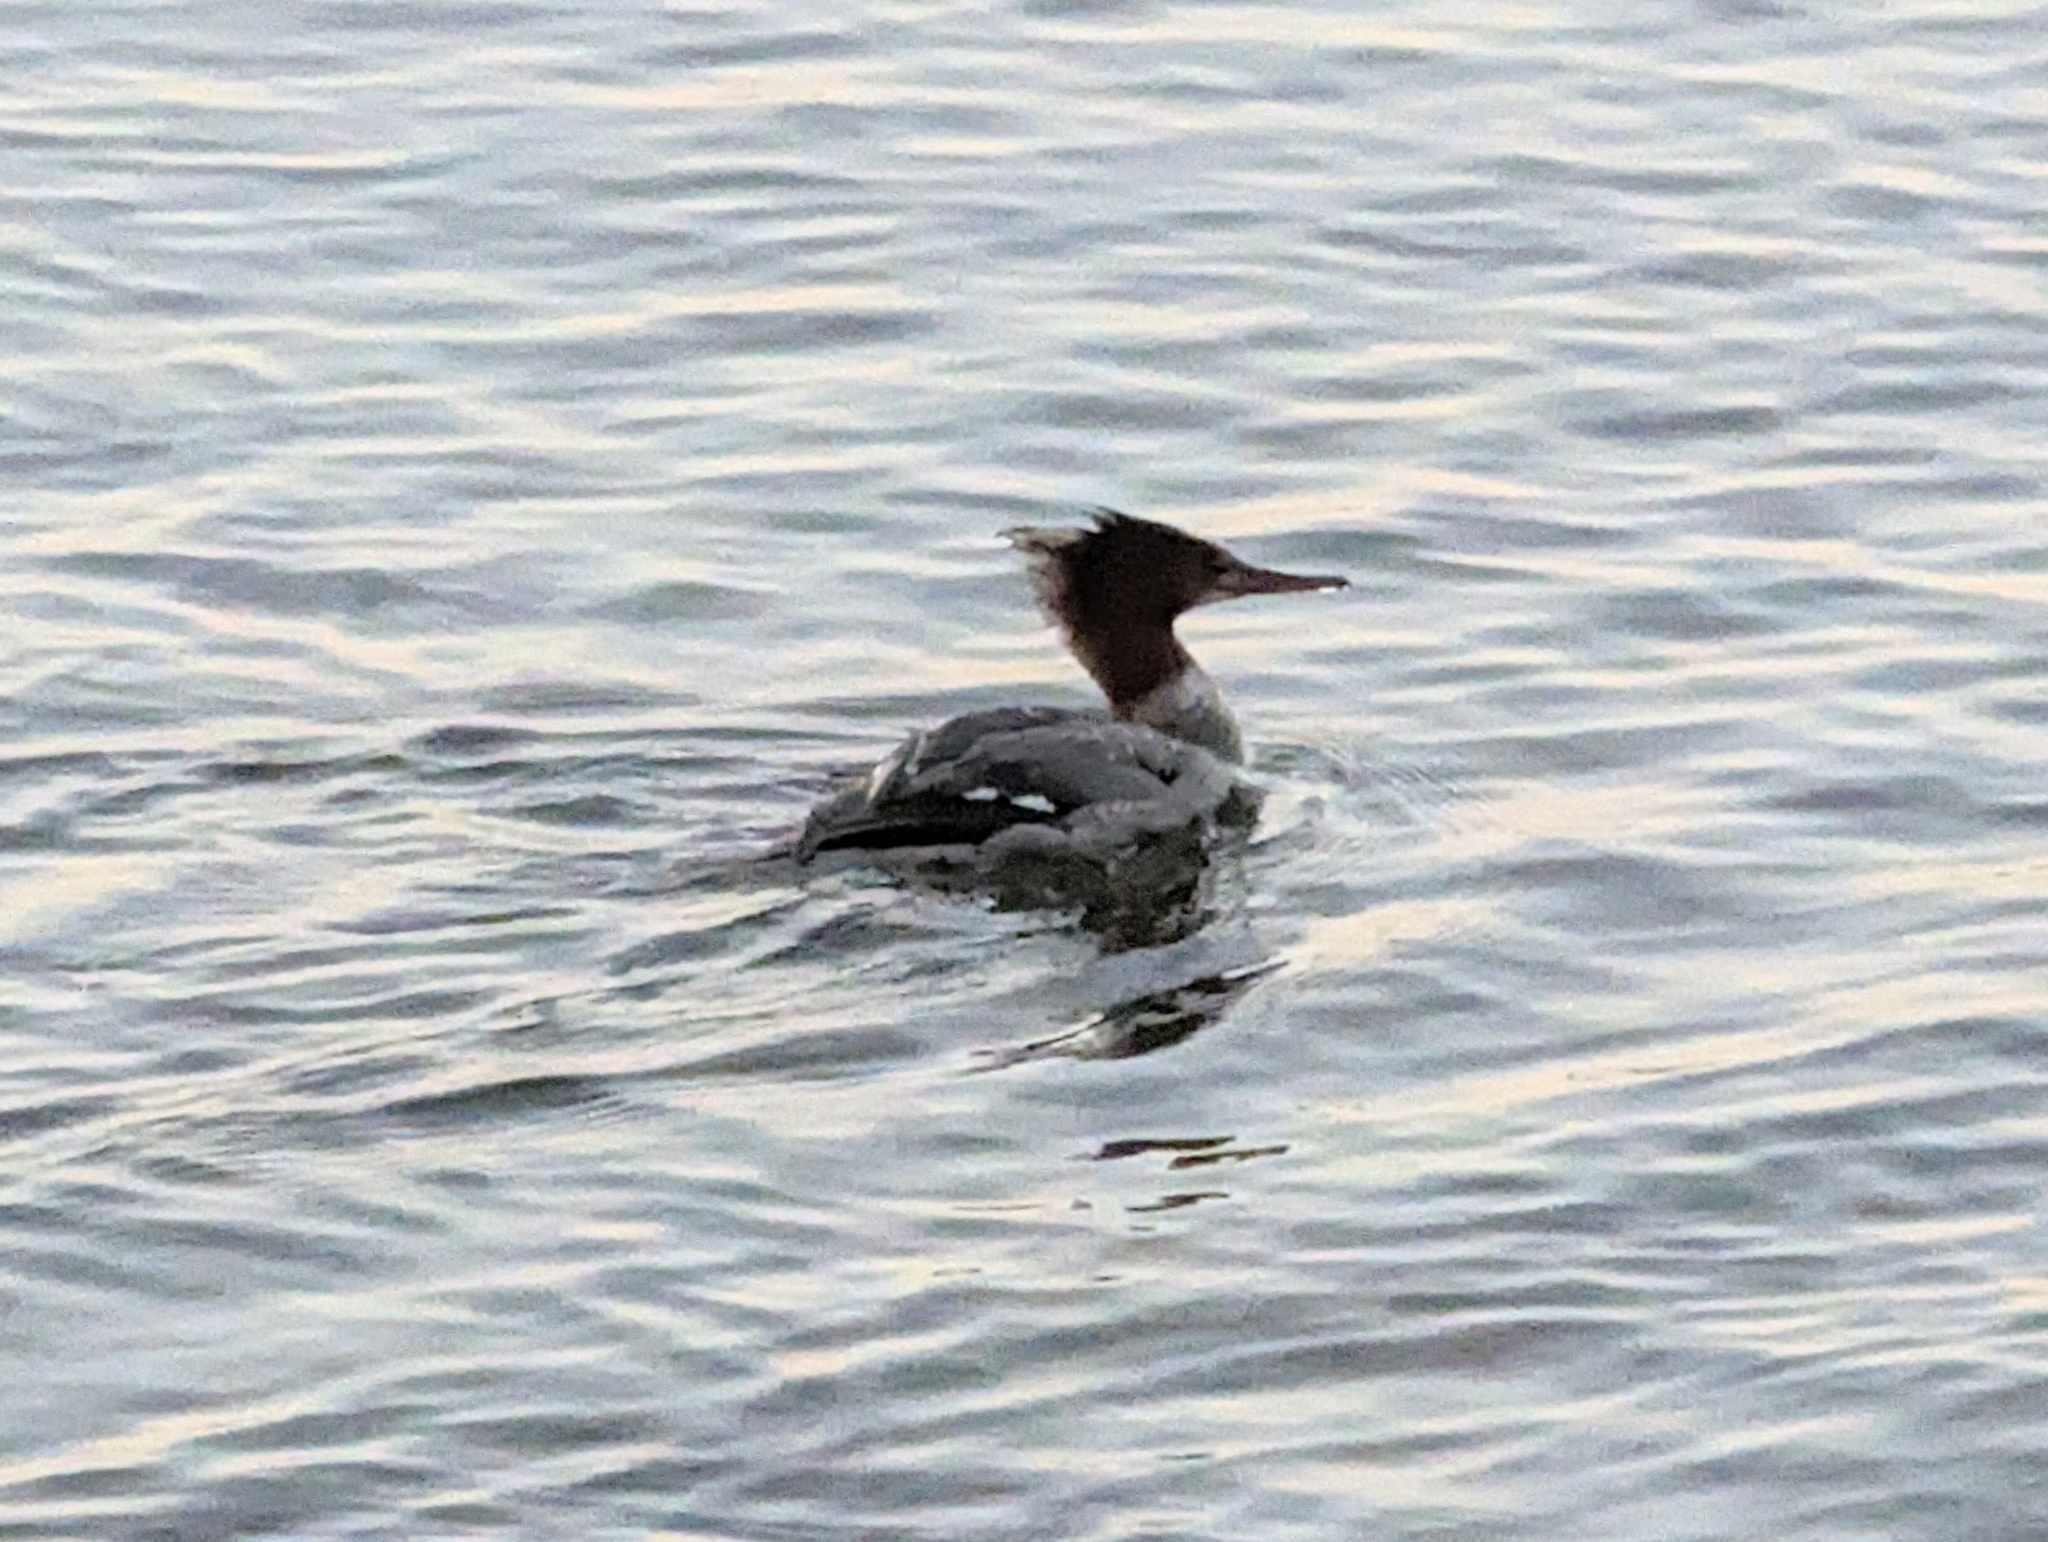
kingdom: Animalia
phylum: Chordata
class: Aves
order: Anseriformes
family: Anatidae
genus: Mergus
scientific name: Mergus merganser
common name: Common merganser
